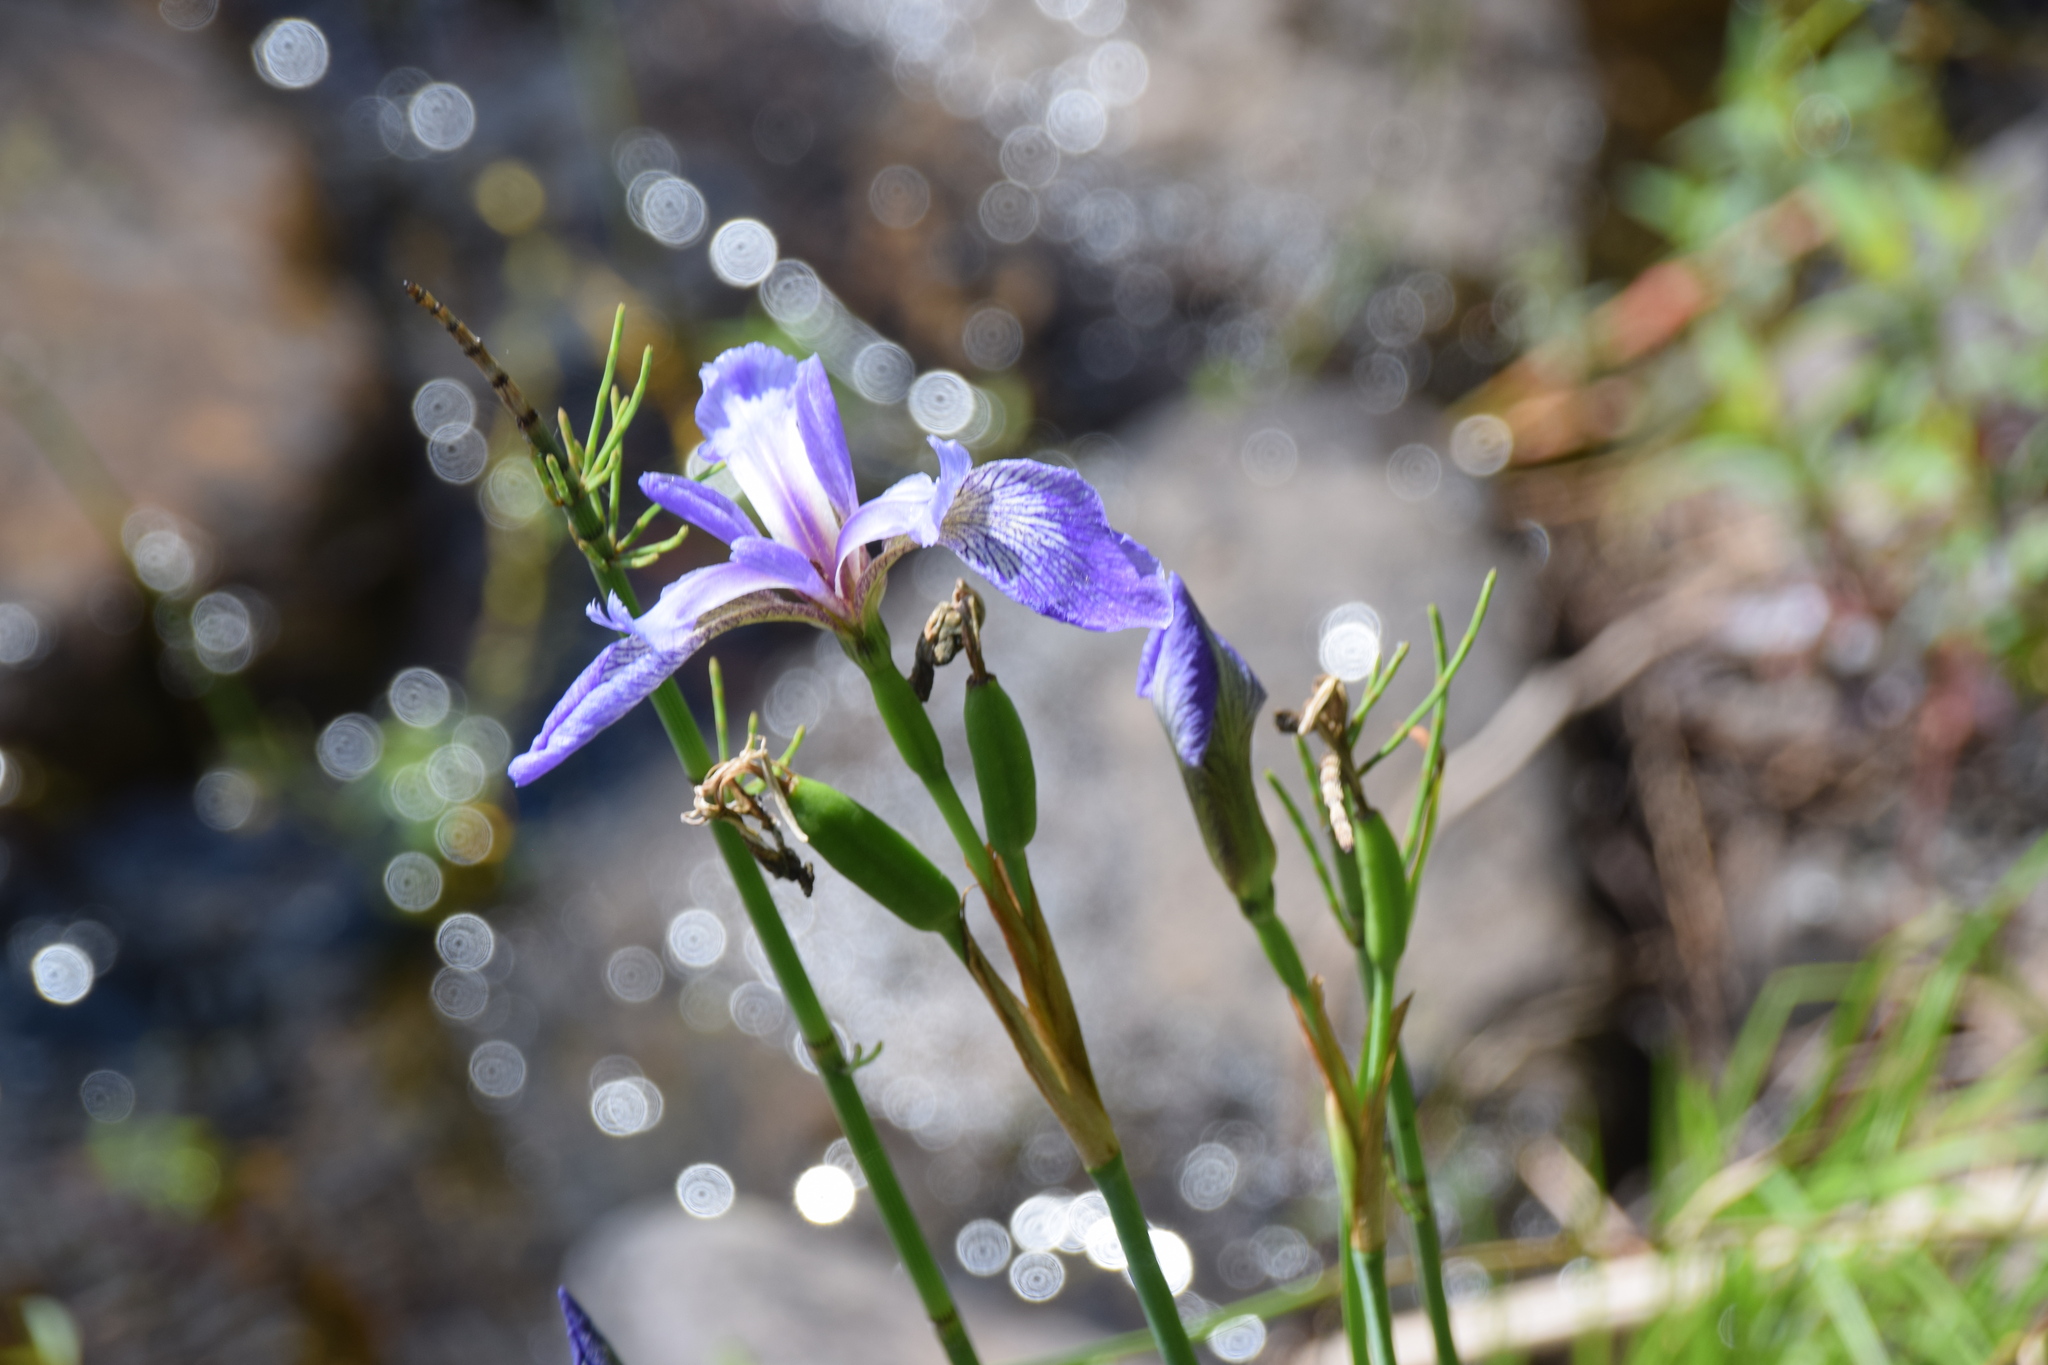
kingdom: Plantae
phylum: Tracheophyta
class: Liliopsida
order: Asparagales
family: Iridaceae
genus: Iris
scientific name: Iris versicolor
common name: Purple iris
